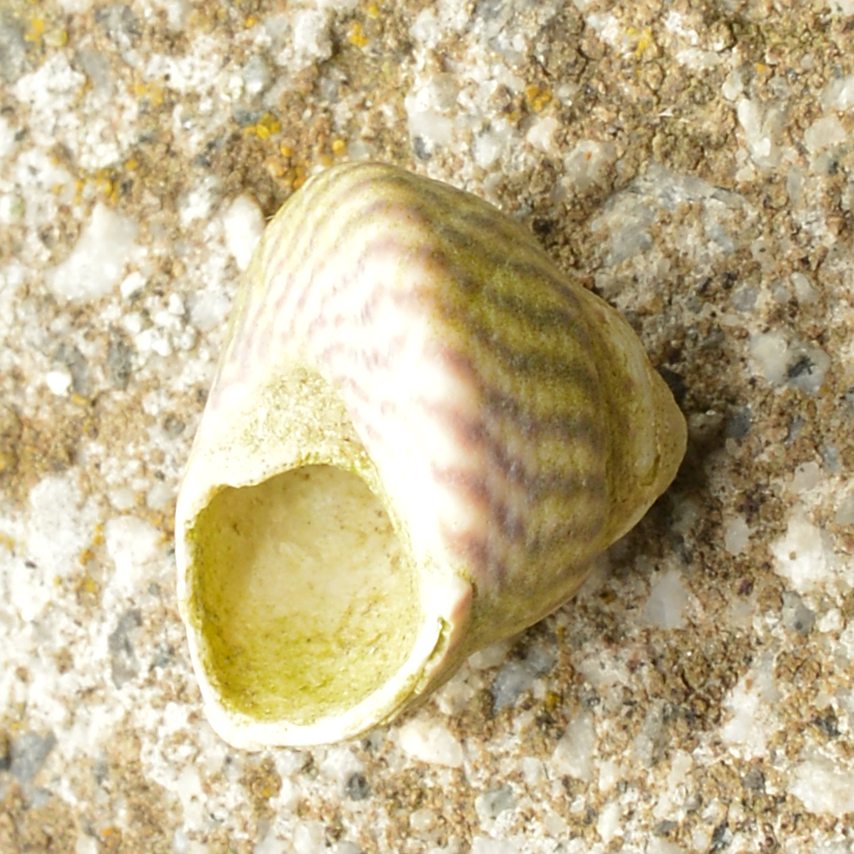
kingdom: Animalia
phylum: Mollusca
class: Gastropoda
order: Trochida
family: Trochidae
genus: Steromphala
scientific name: Steromphala cineraria
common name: Grey top shell
